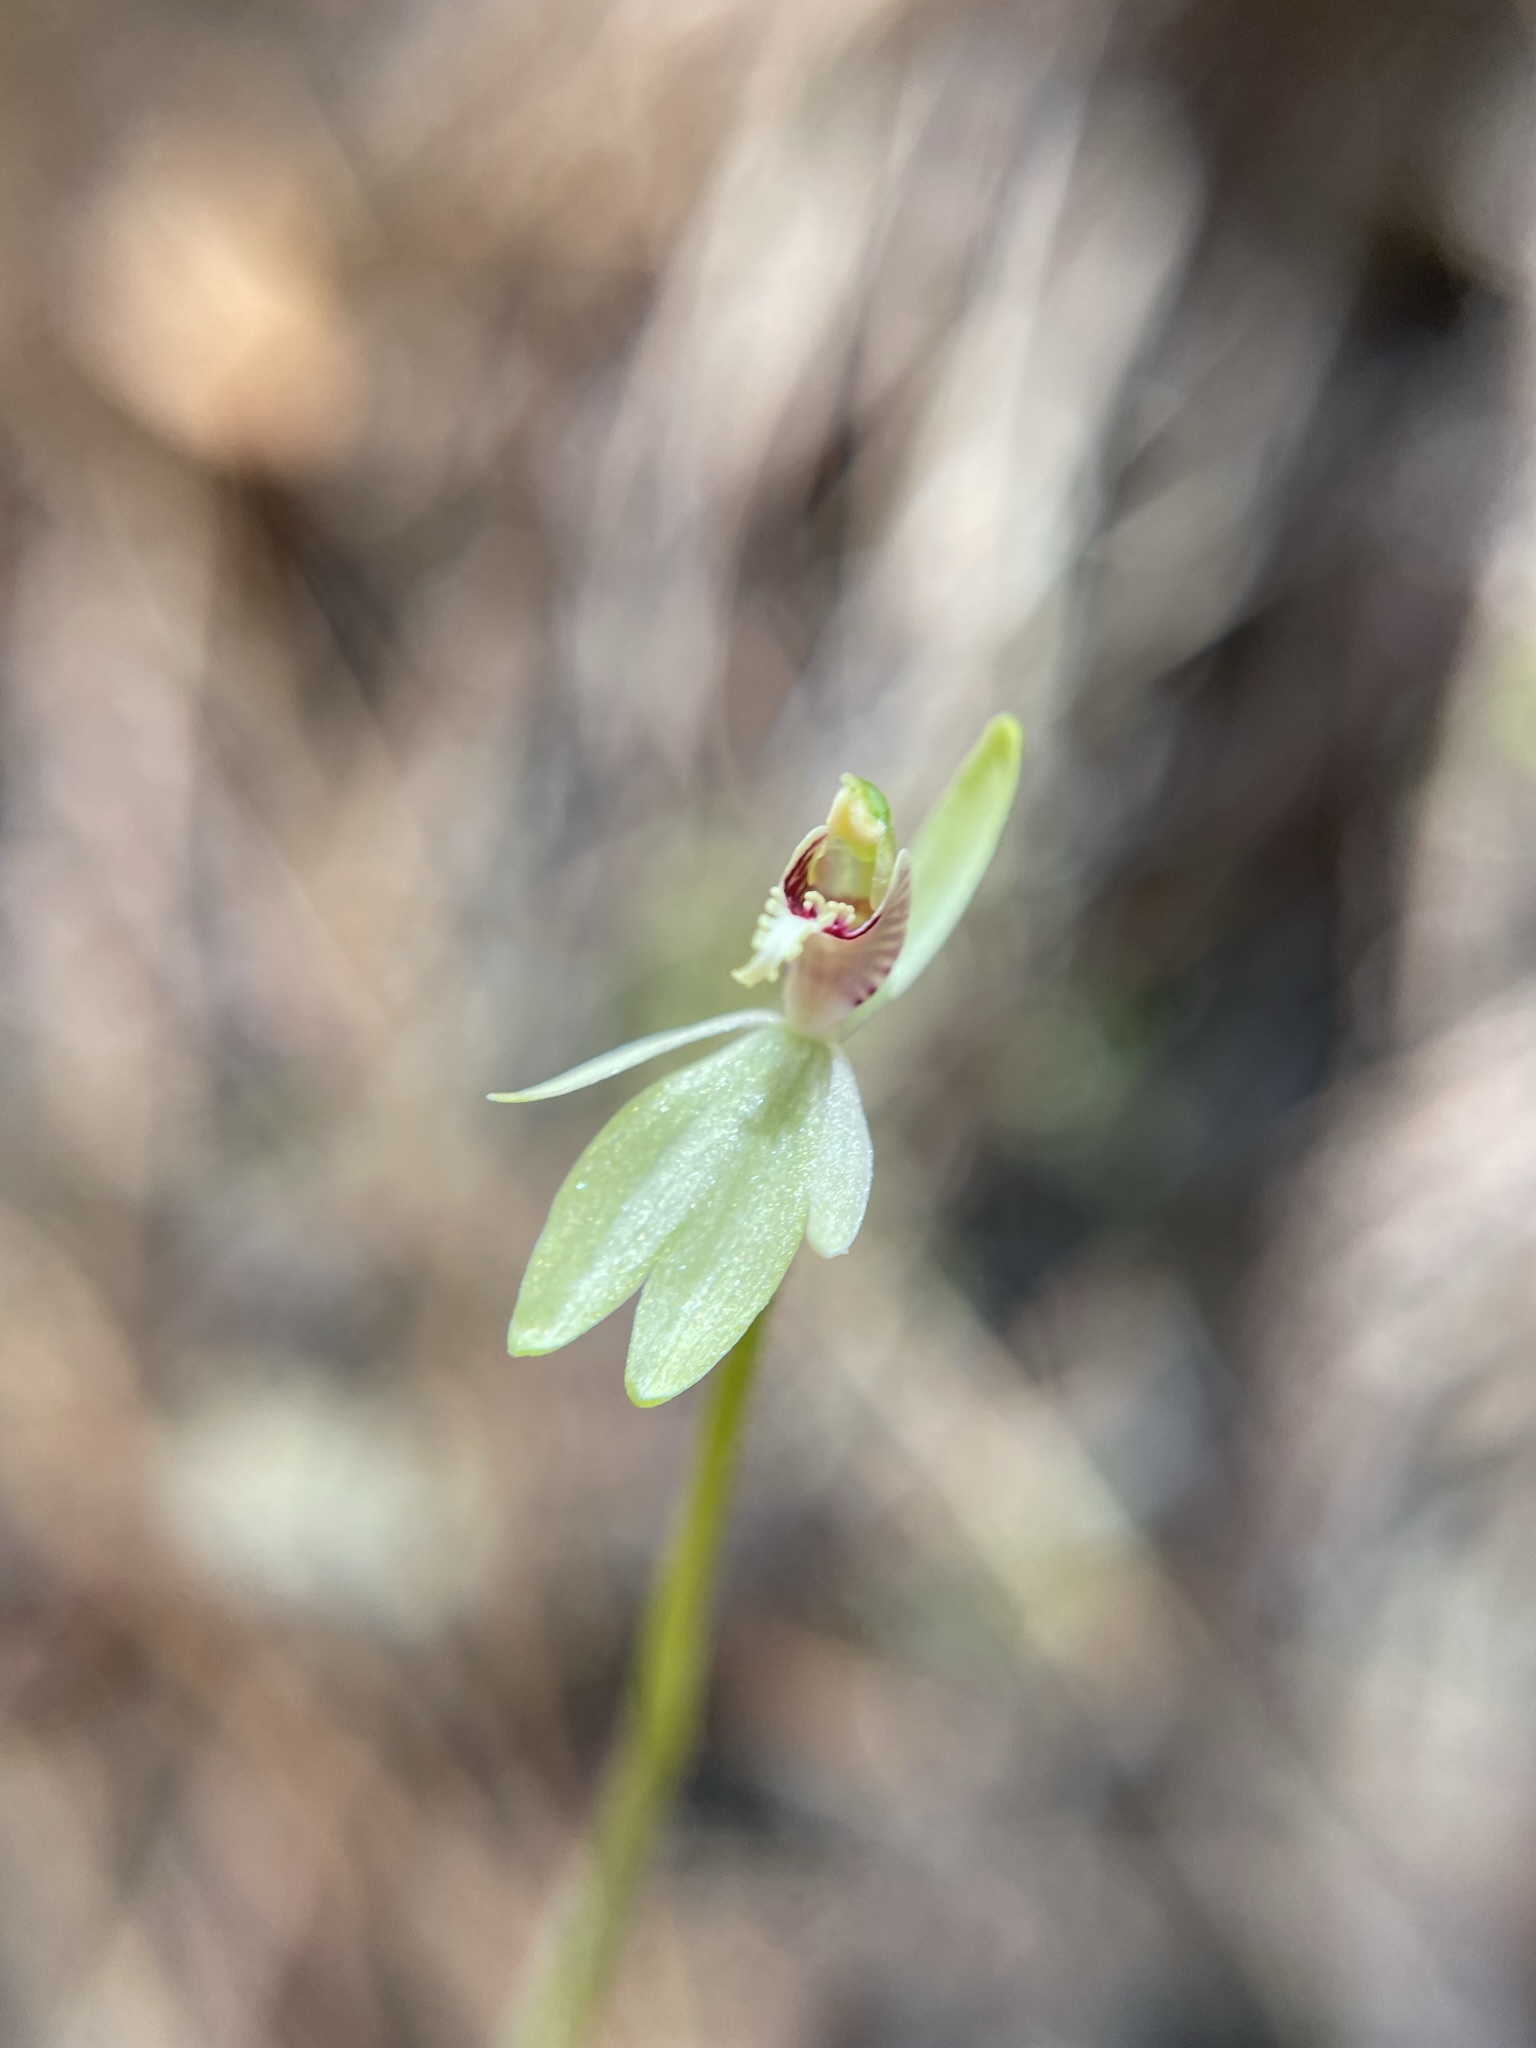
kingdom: Plantae
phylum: Tracheophyta
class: Liliopsida
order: Asparagales
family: Orchidaceae
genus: Caladenia
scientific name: Caladenia chlorostyla
